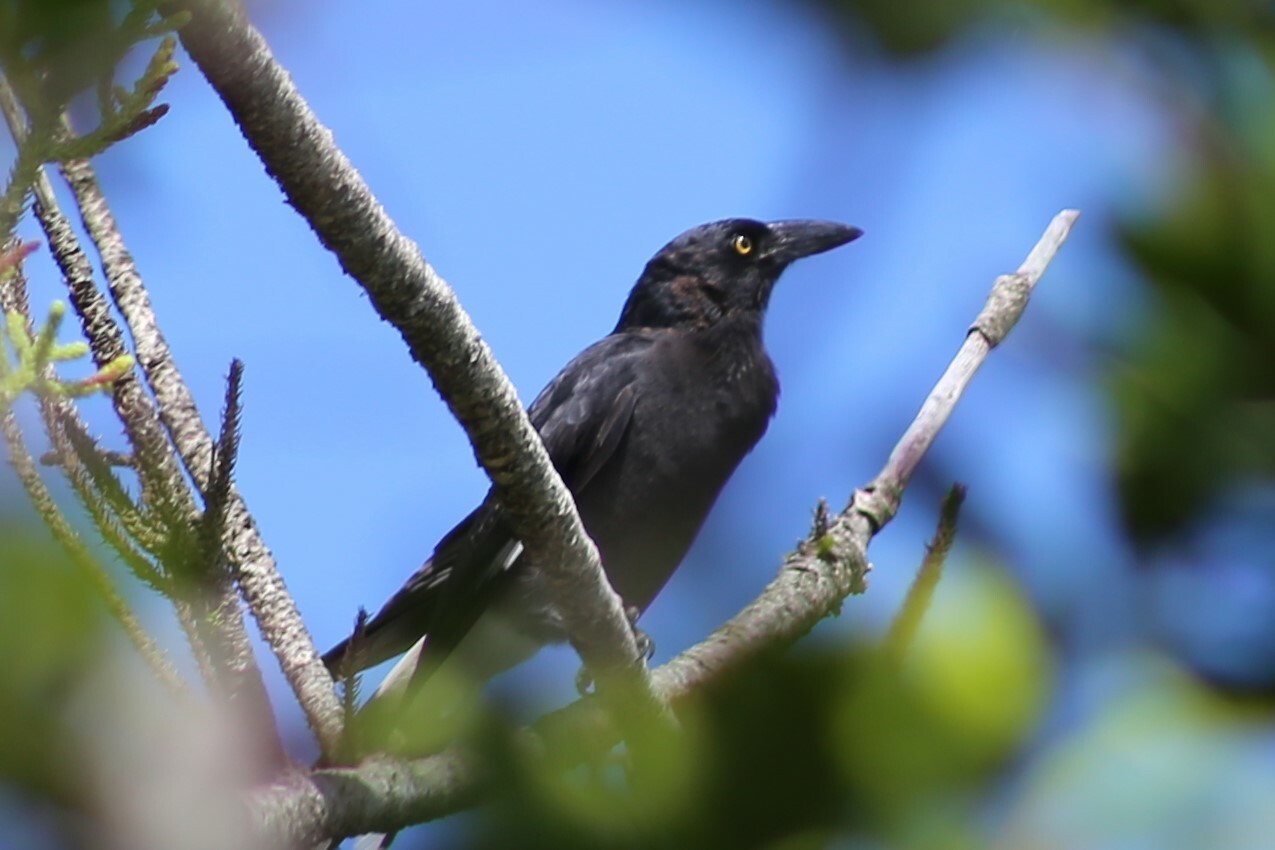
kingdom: Animalia
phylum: Chordata
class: Aves
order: Passeriformes
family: Cracticidae
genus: Strepera
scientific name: Strepera graculina
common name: Pied currawong
